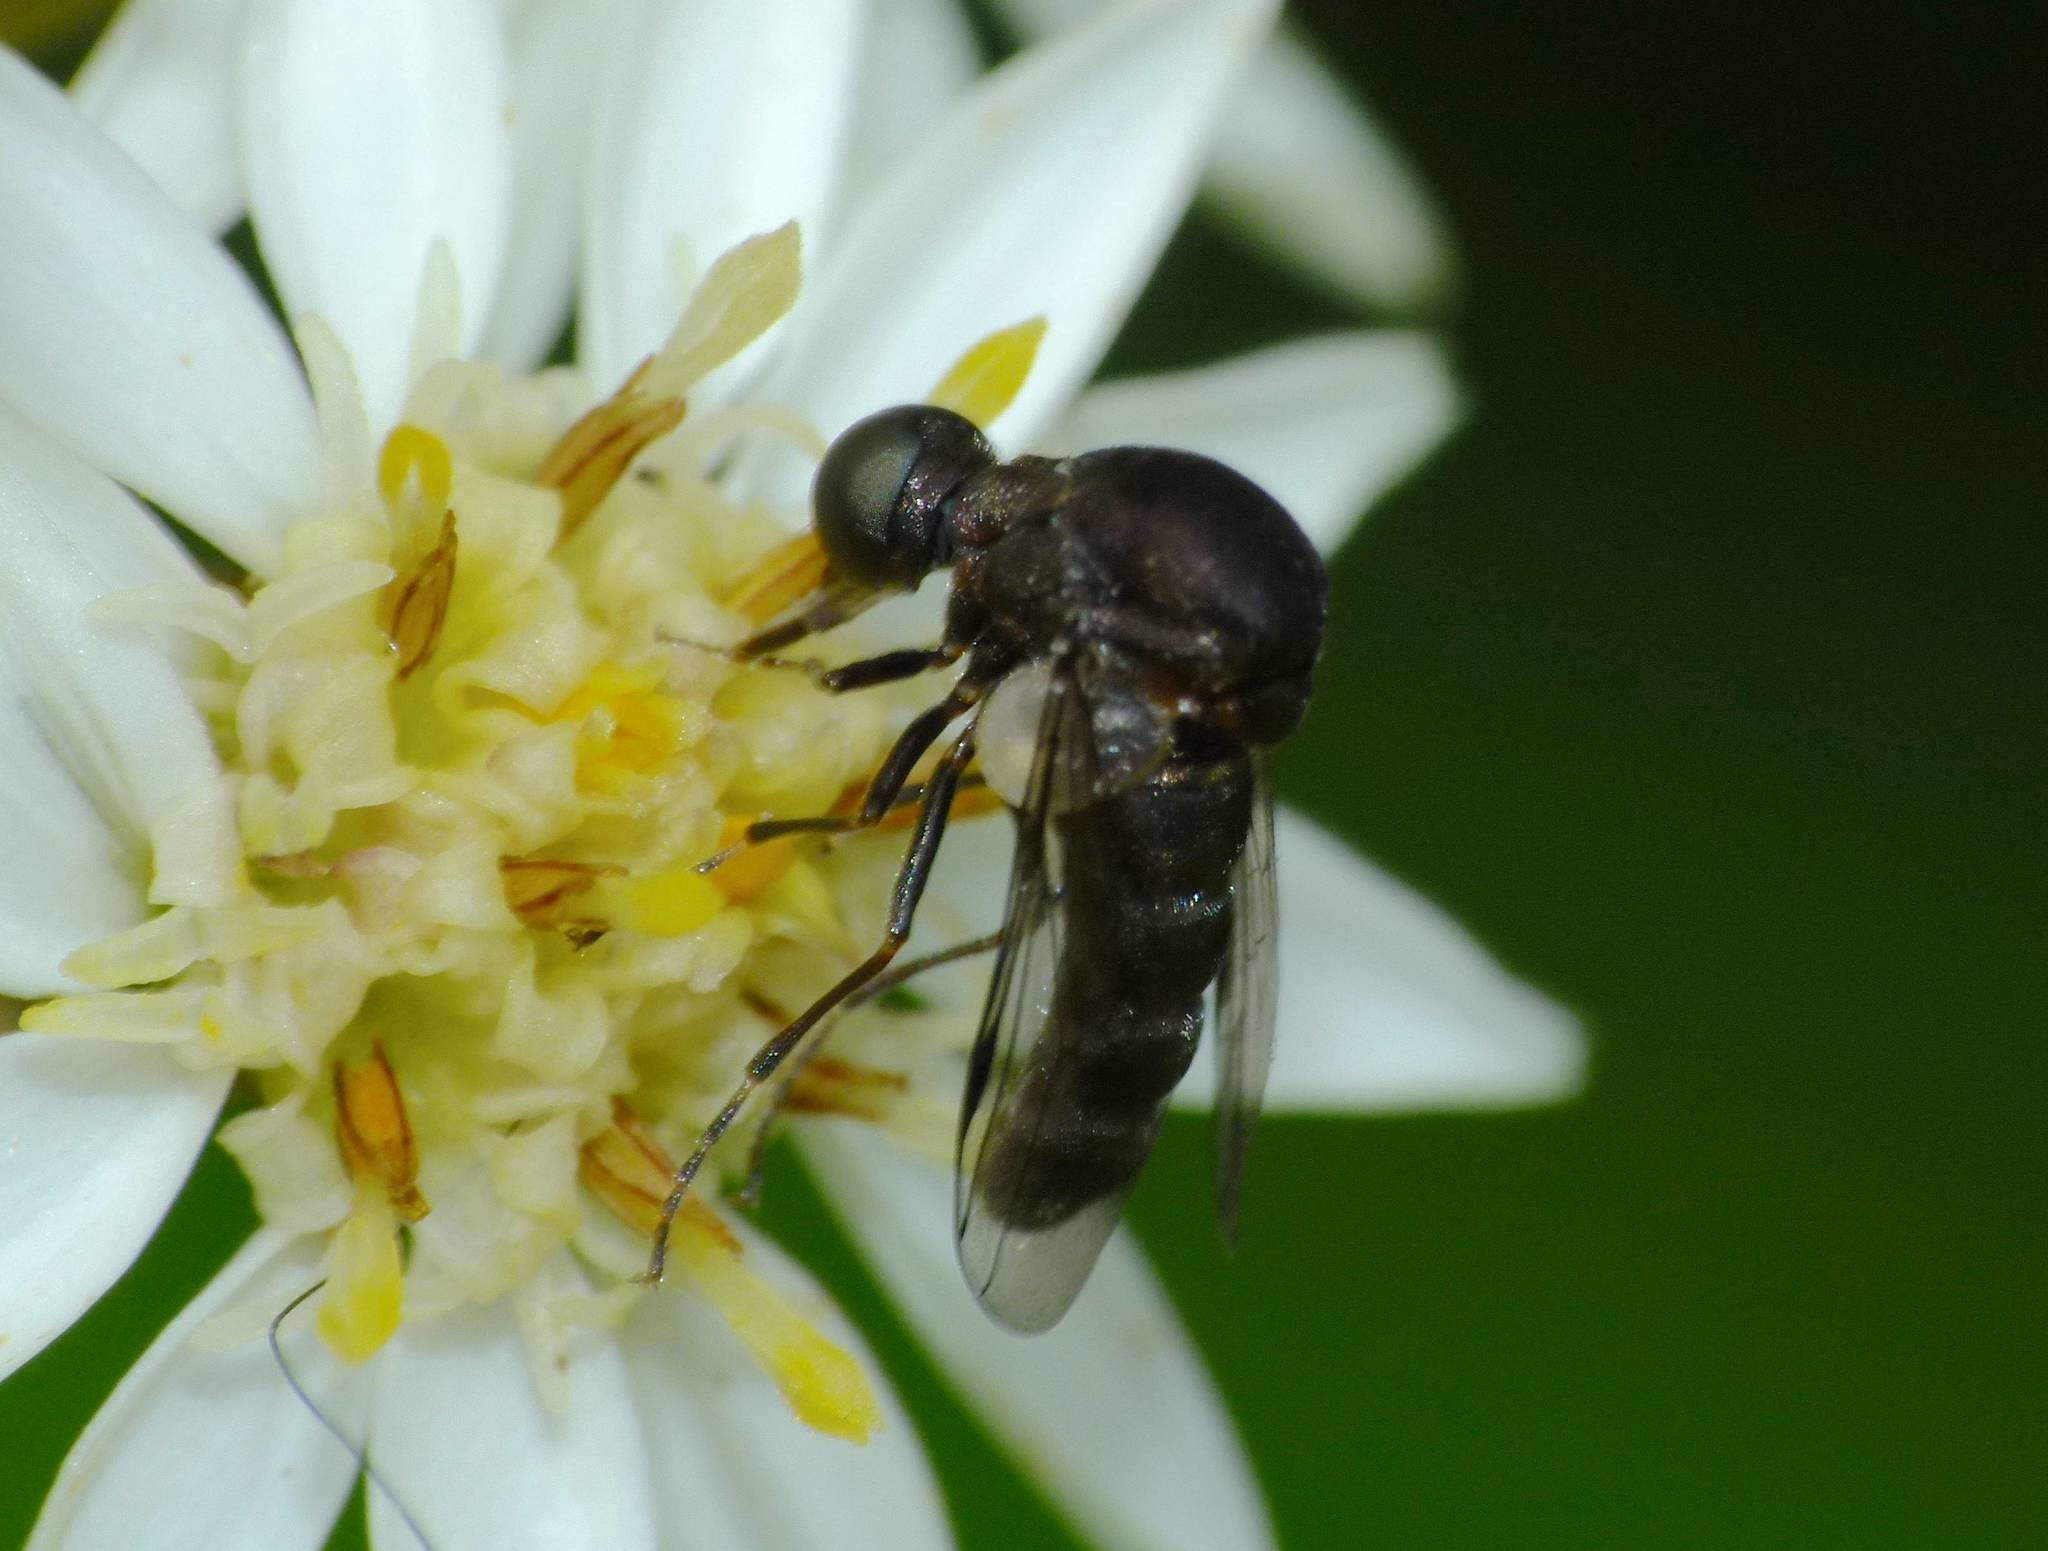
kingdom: Animalia
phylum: Arthropoda
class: Insecta
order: Diptera
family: Acroceridae
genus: Helle
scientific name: Helle longirostris
